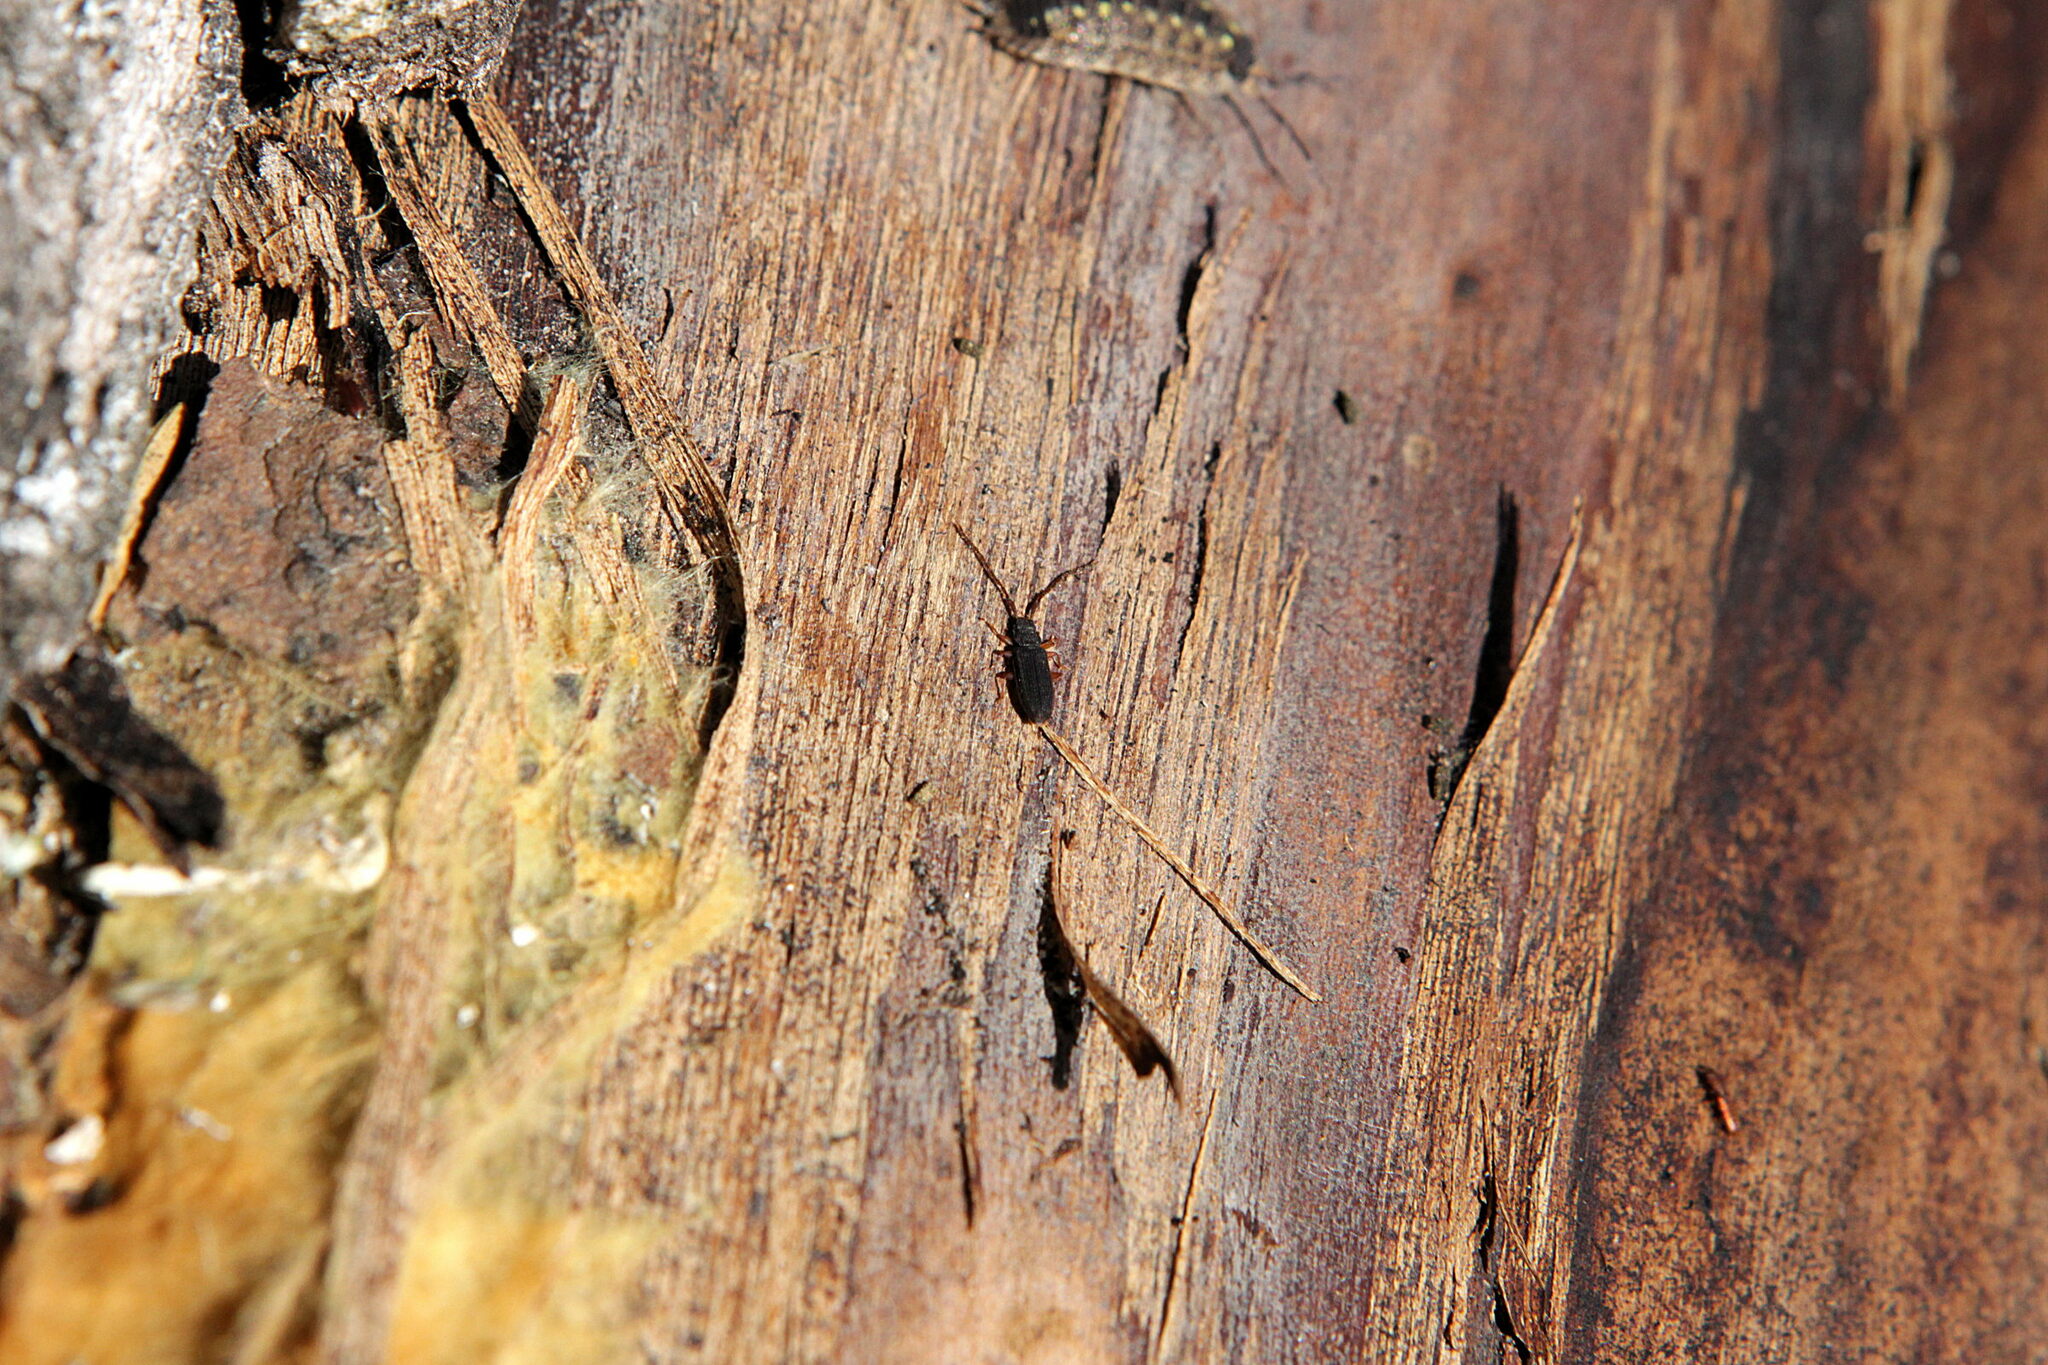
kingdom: Animalia
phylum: Arthropoda
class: Insecta
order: Coleoptera
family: Silvanidae
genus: Uleiota
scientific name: Uleiota planatus
